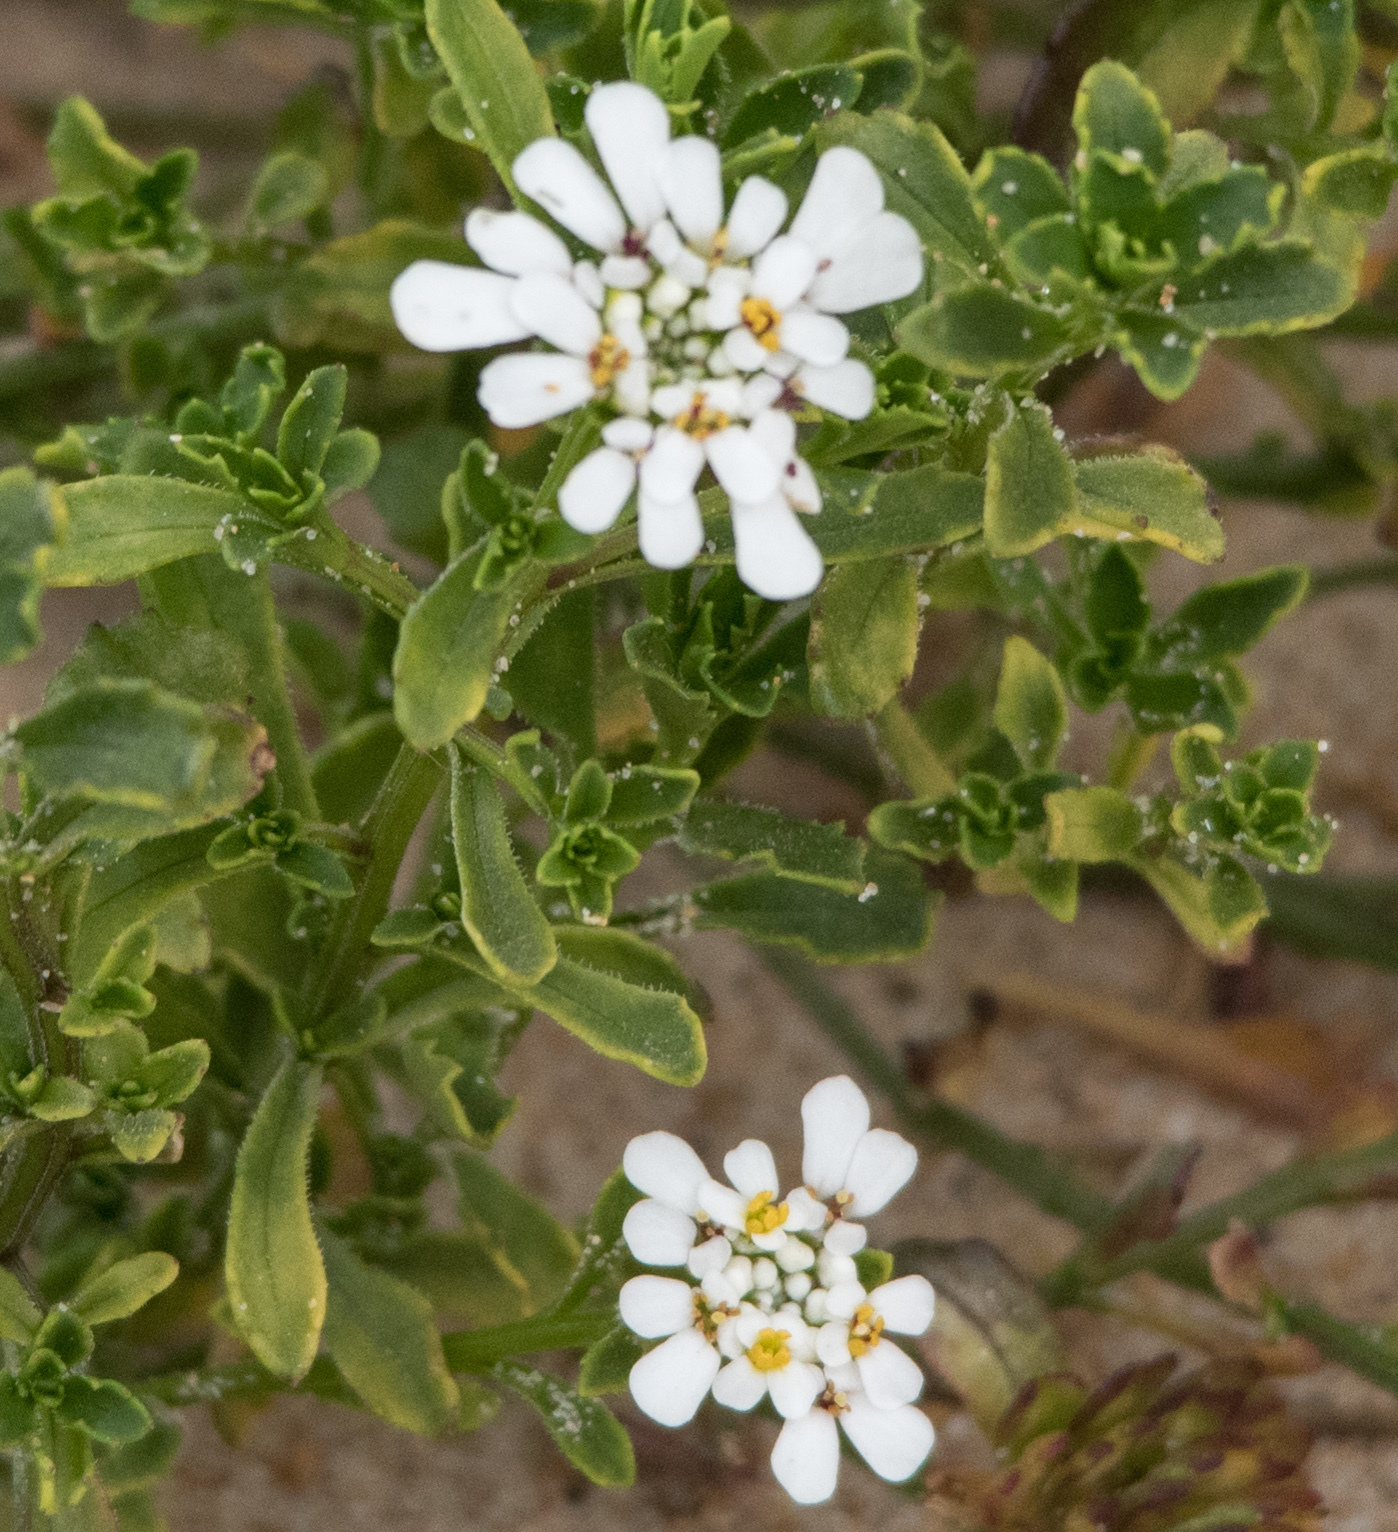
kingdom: Plantae
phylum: Tracheophyta
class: Magnoliopsida
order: Brassicales
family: Brassicaceae
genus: Iberis
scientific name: Iberis procumbens
